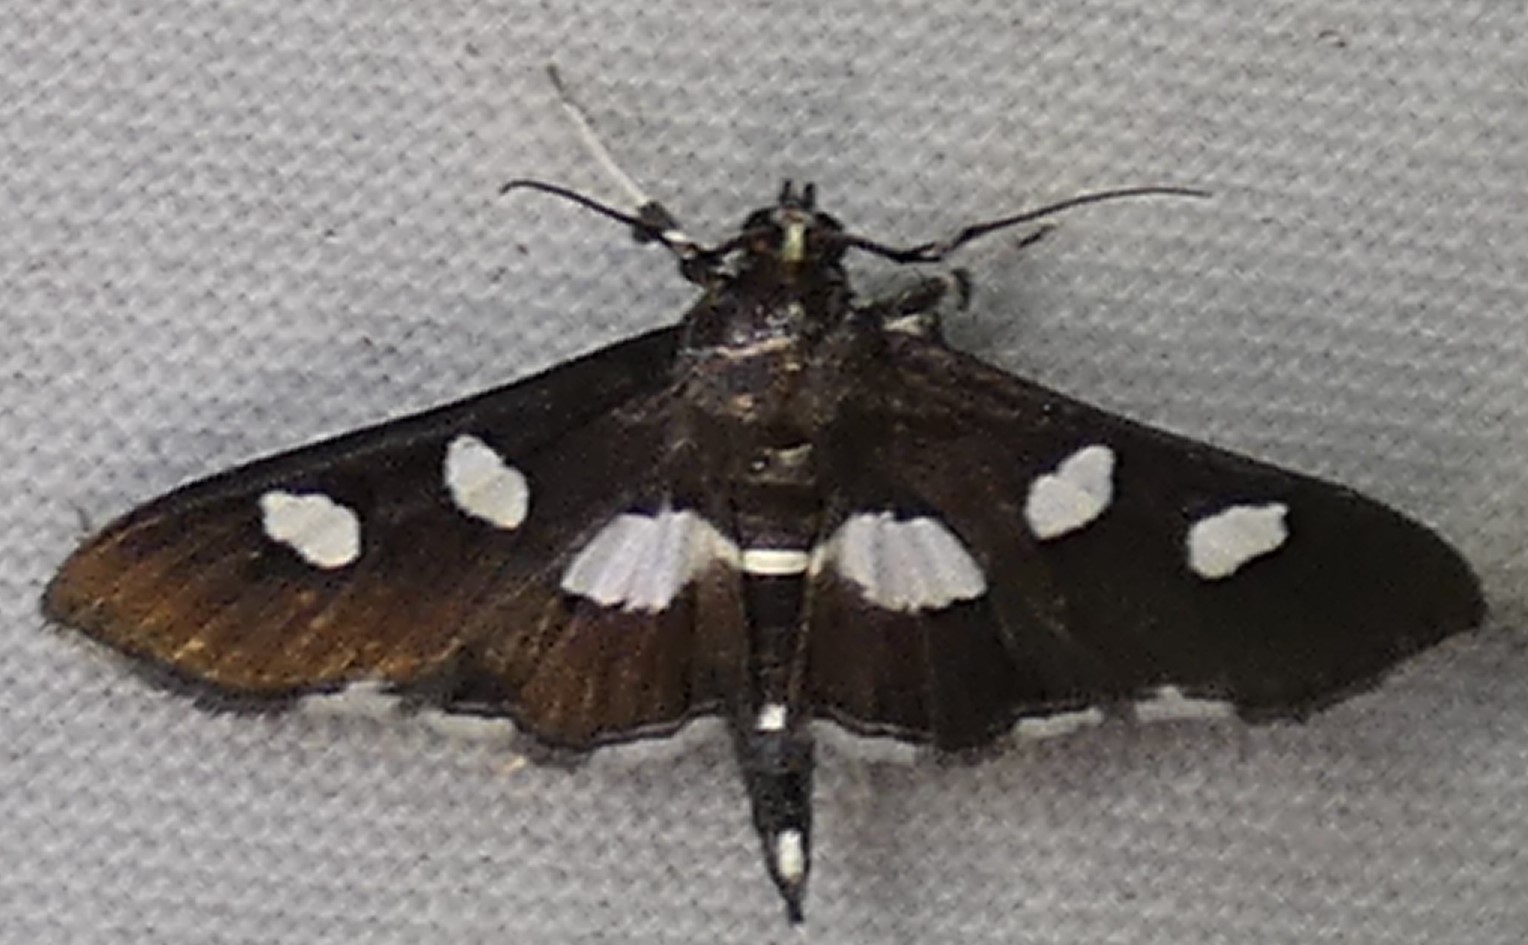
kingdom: Animalia
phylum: Arthropoda
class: Insecta
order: Lepidoptera
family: Crambidae
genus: Desmia
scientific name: Desmia funeralis
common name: Grape leaf folder moth
